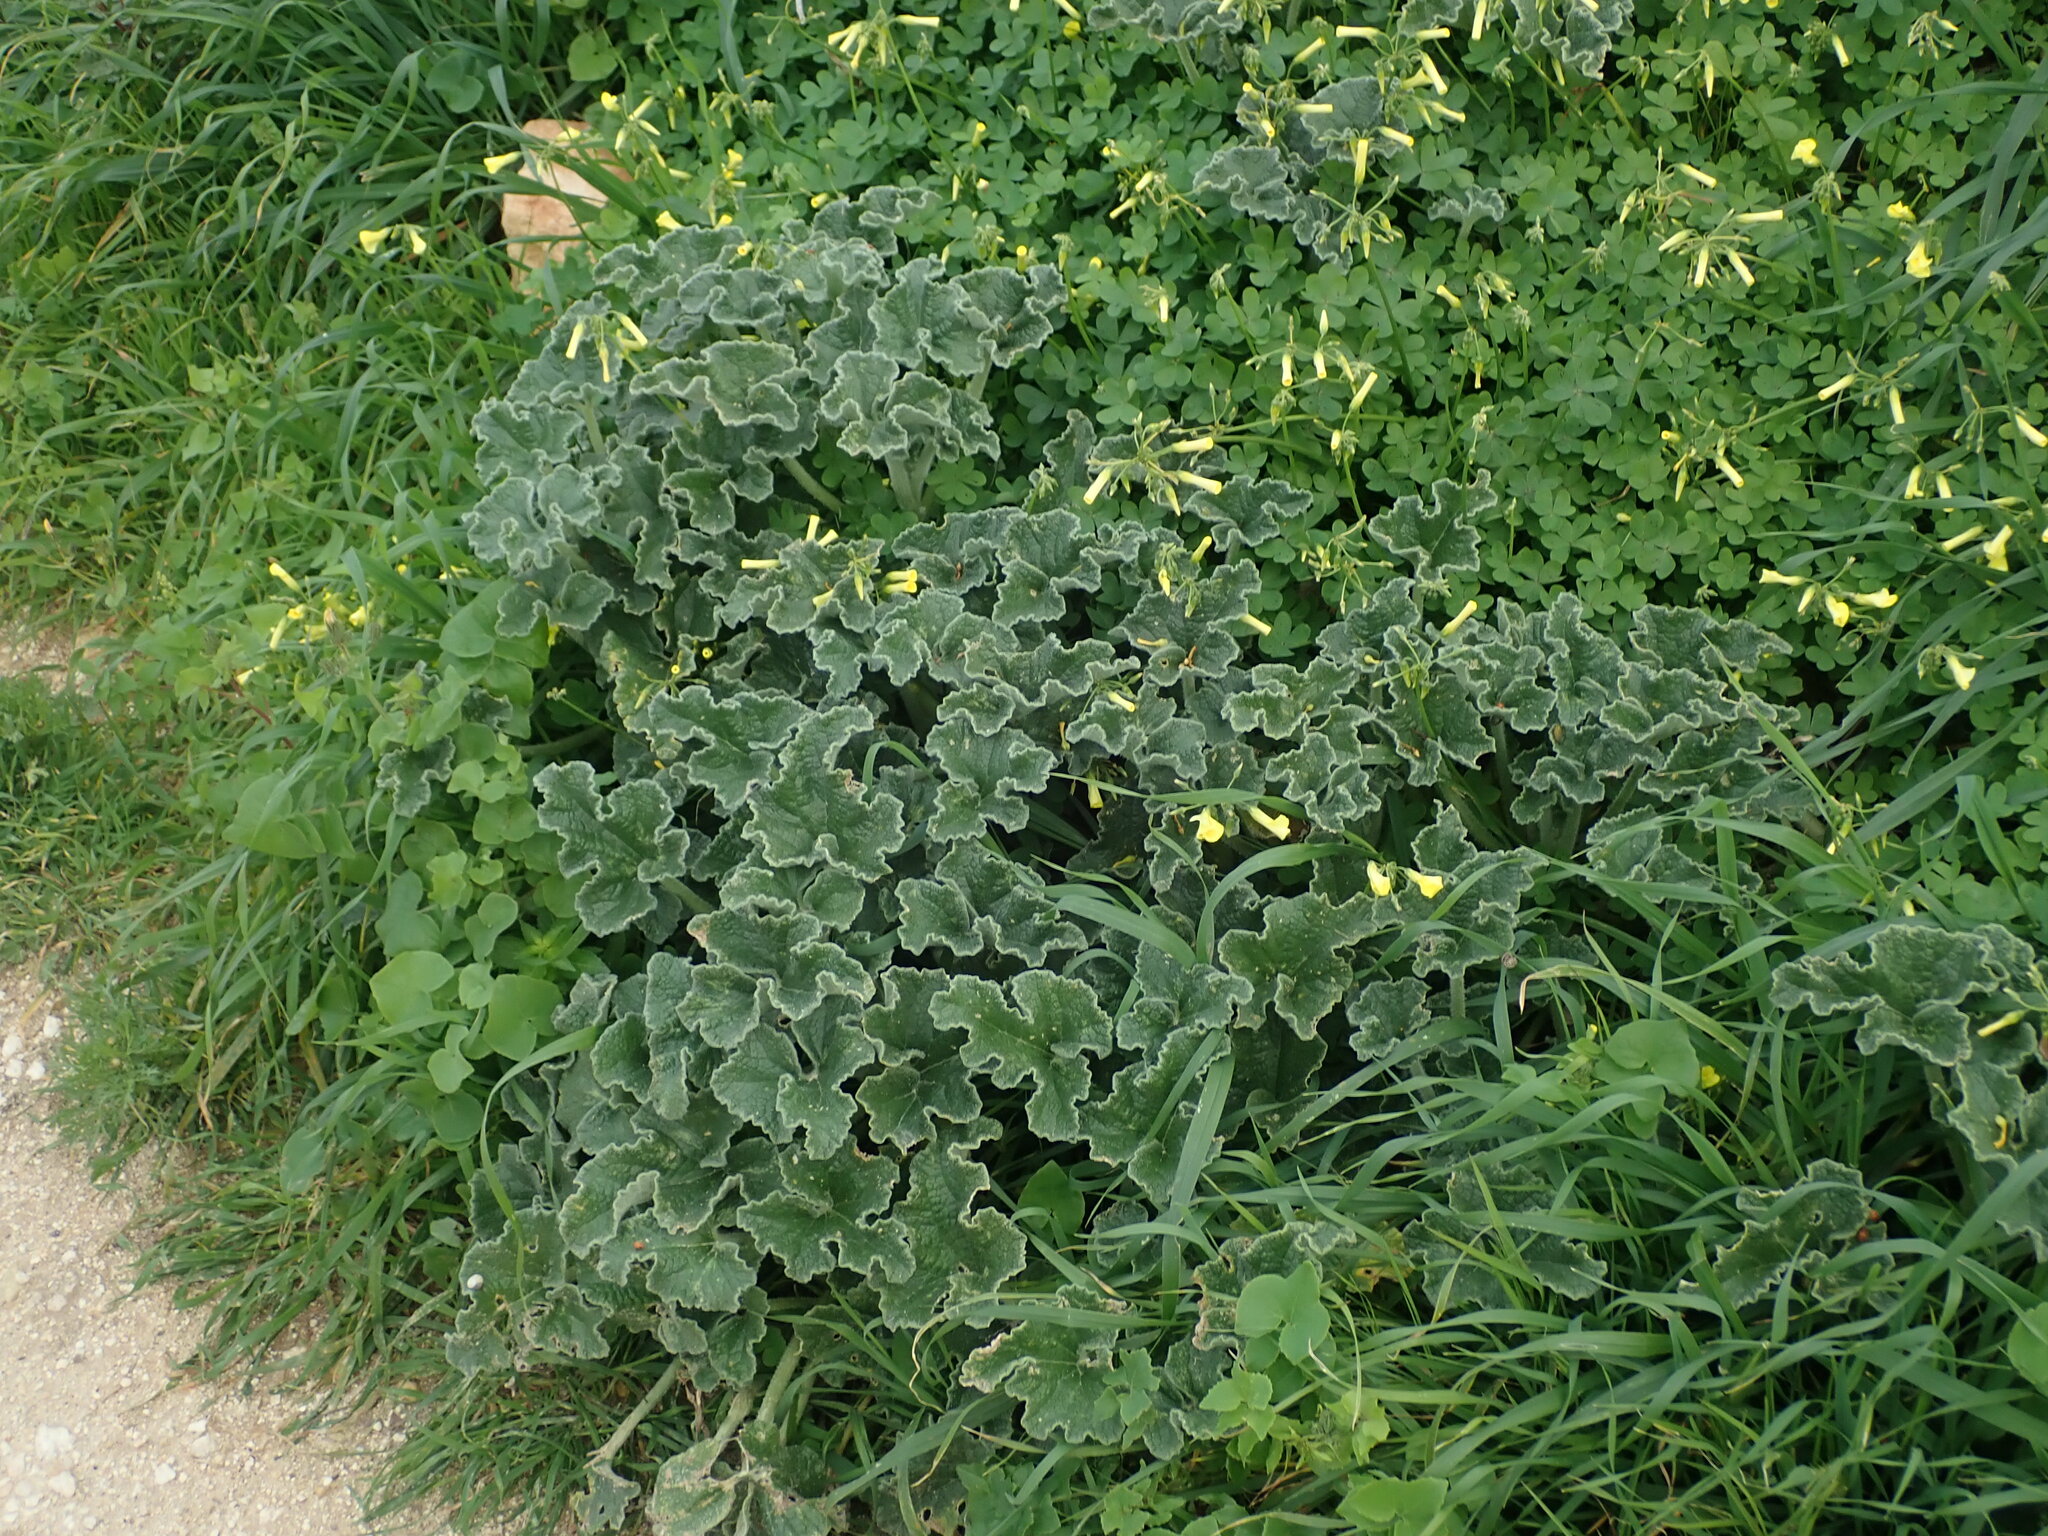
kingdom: Plantae
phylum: Tracheophyta
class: Magnoliopsida
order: Cucurbitales
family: Cucurbitaceae
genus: Ecballium
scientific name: Ecballium elaterium
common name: Squirting cucumber
